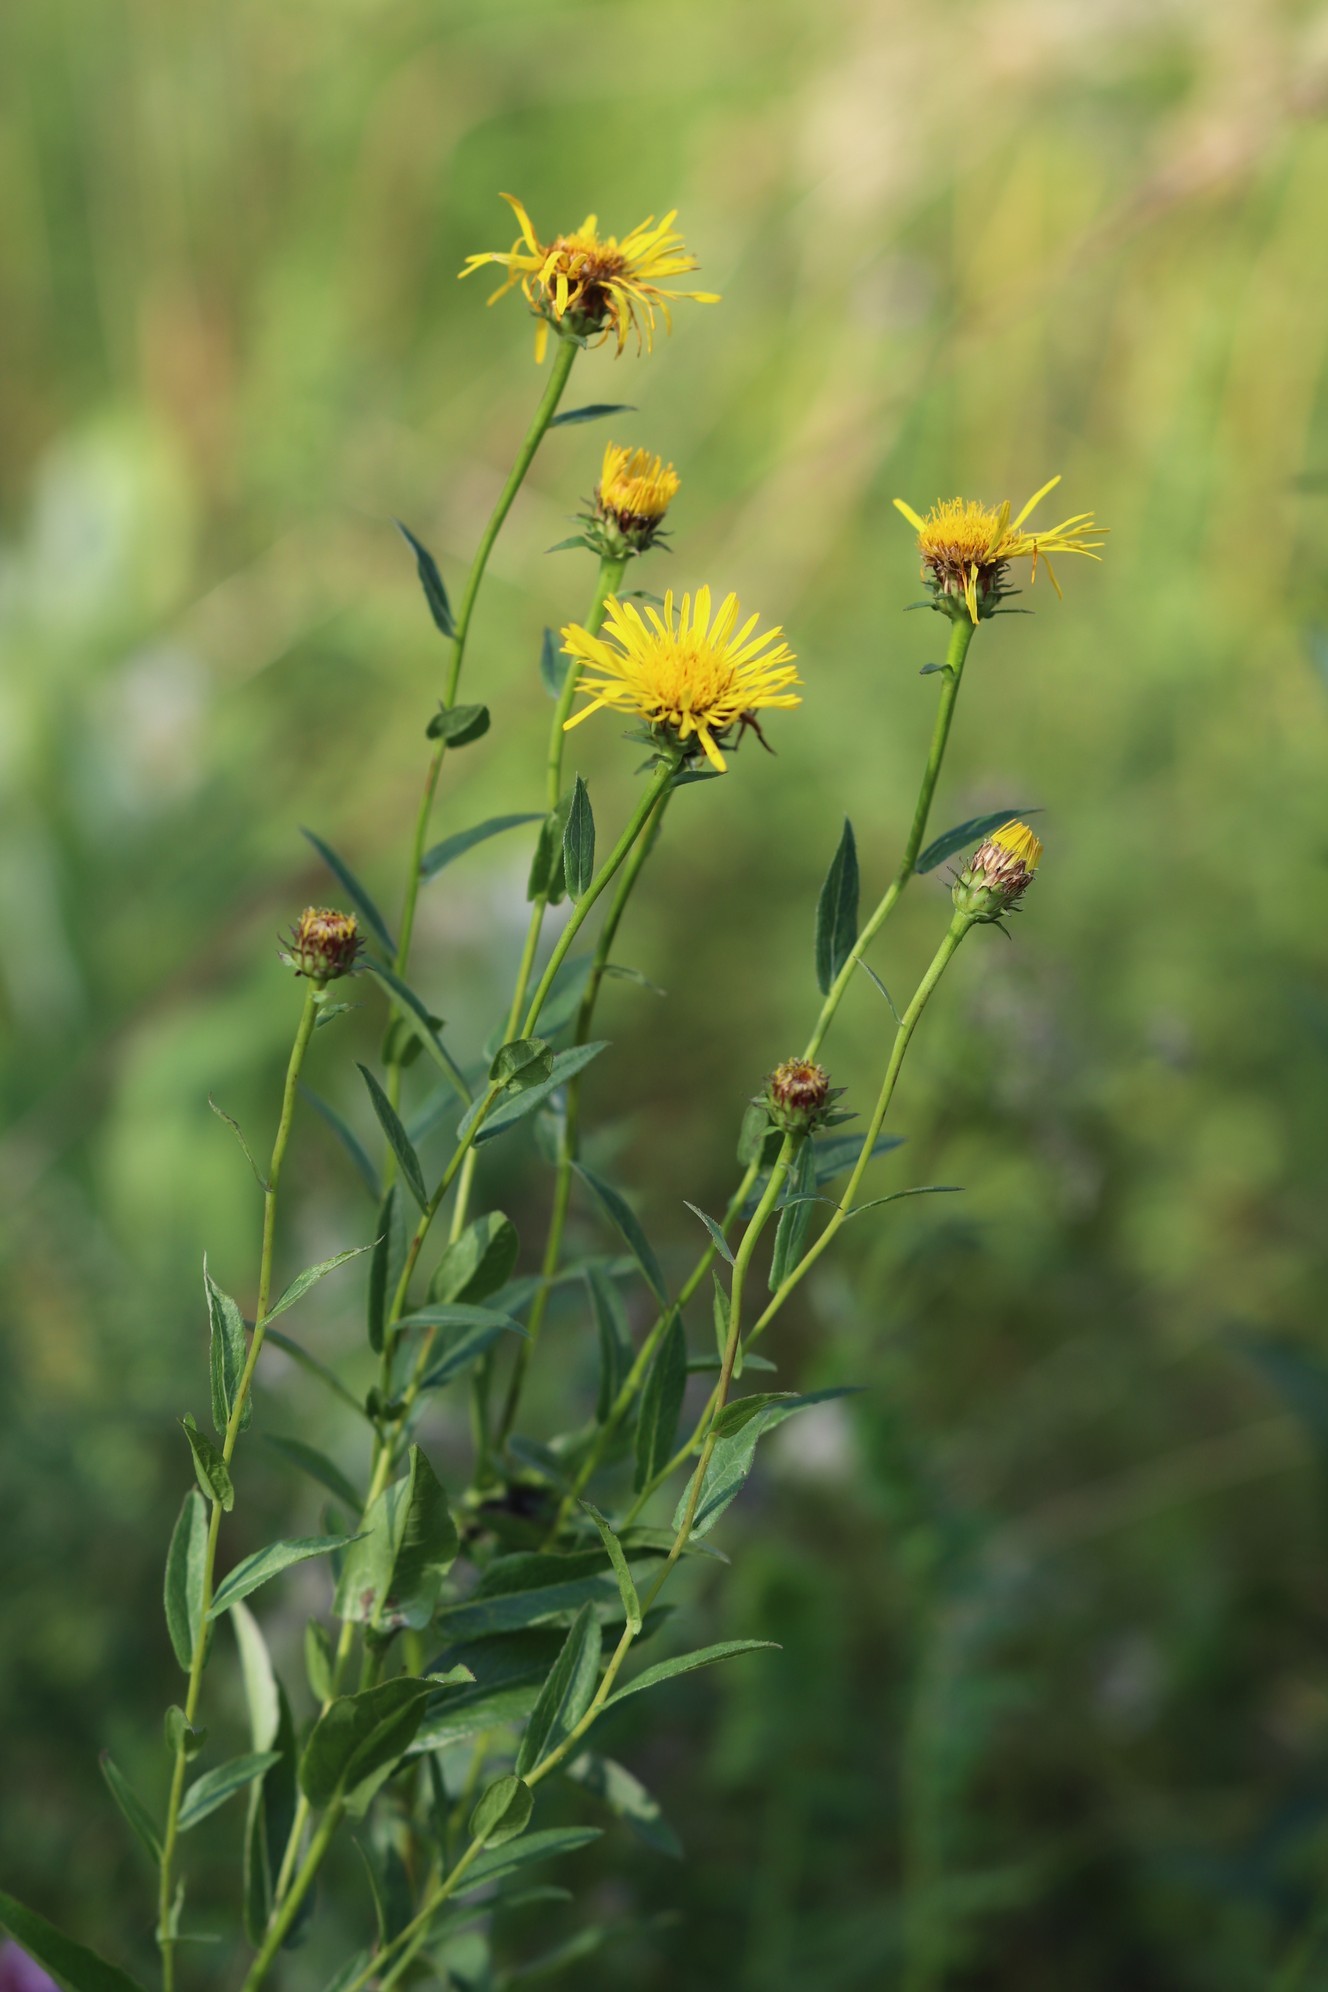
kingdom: Plantae
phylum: Tracheophyta
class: Magnoliopsida
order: Asterales
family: Asteraceae
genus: Pentanema
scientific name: Pentanema salicinum
